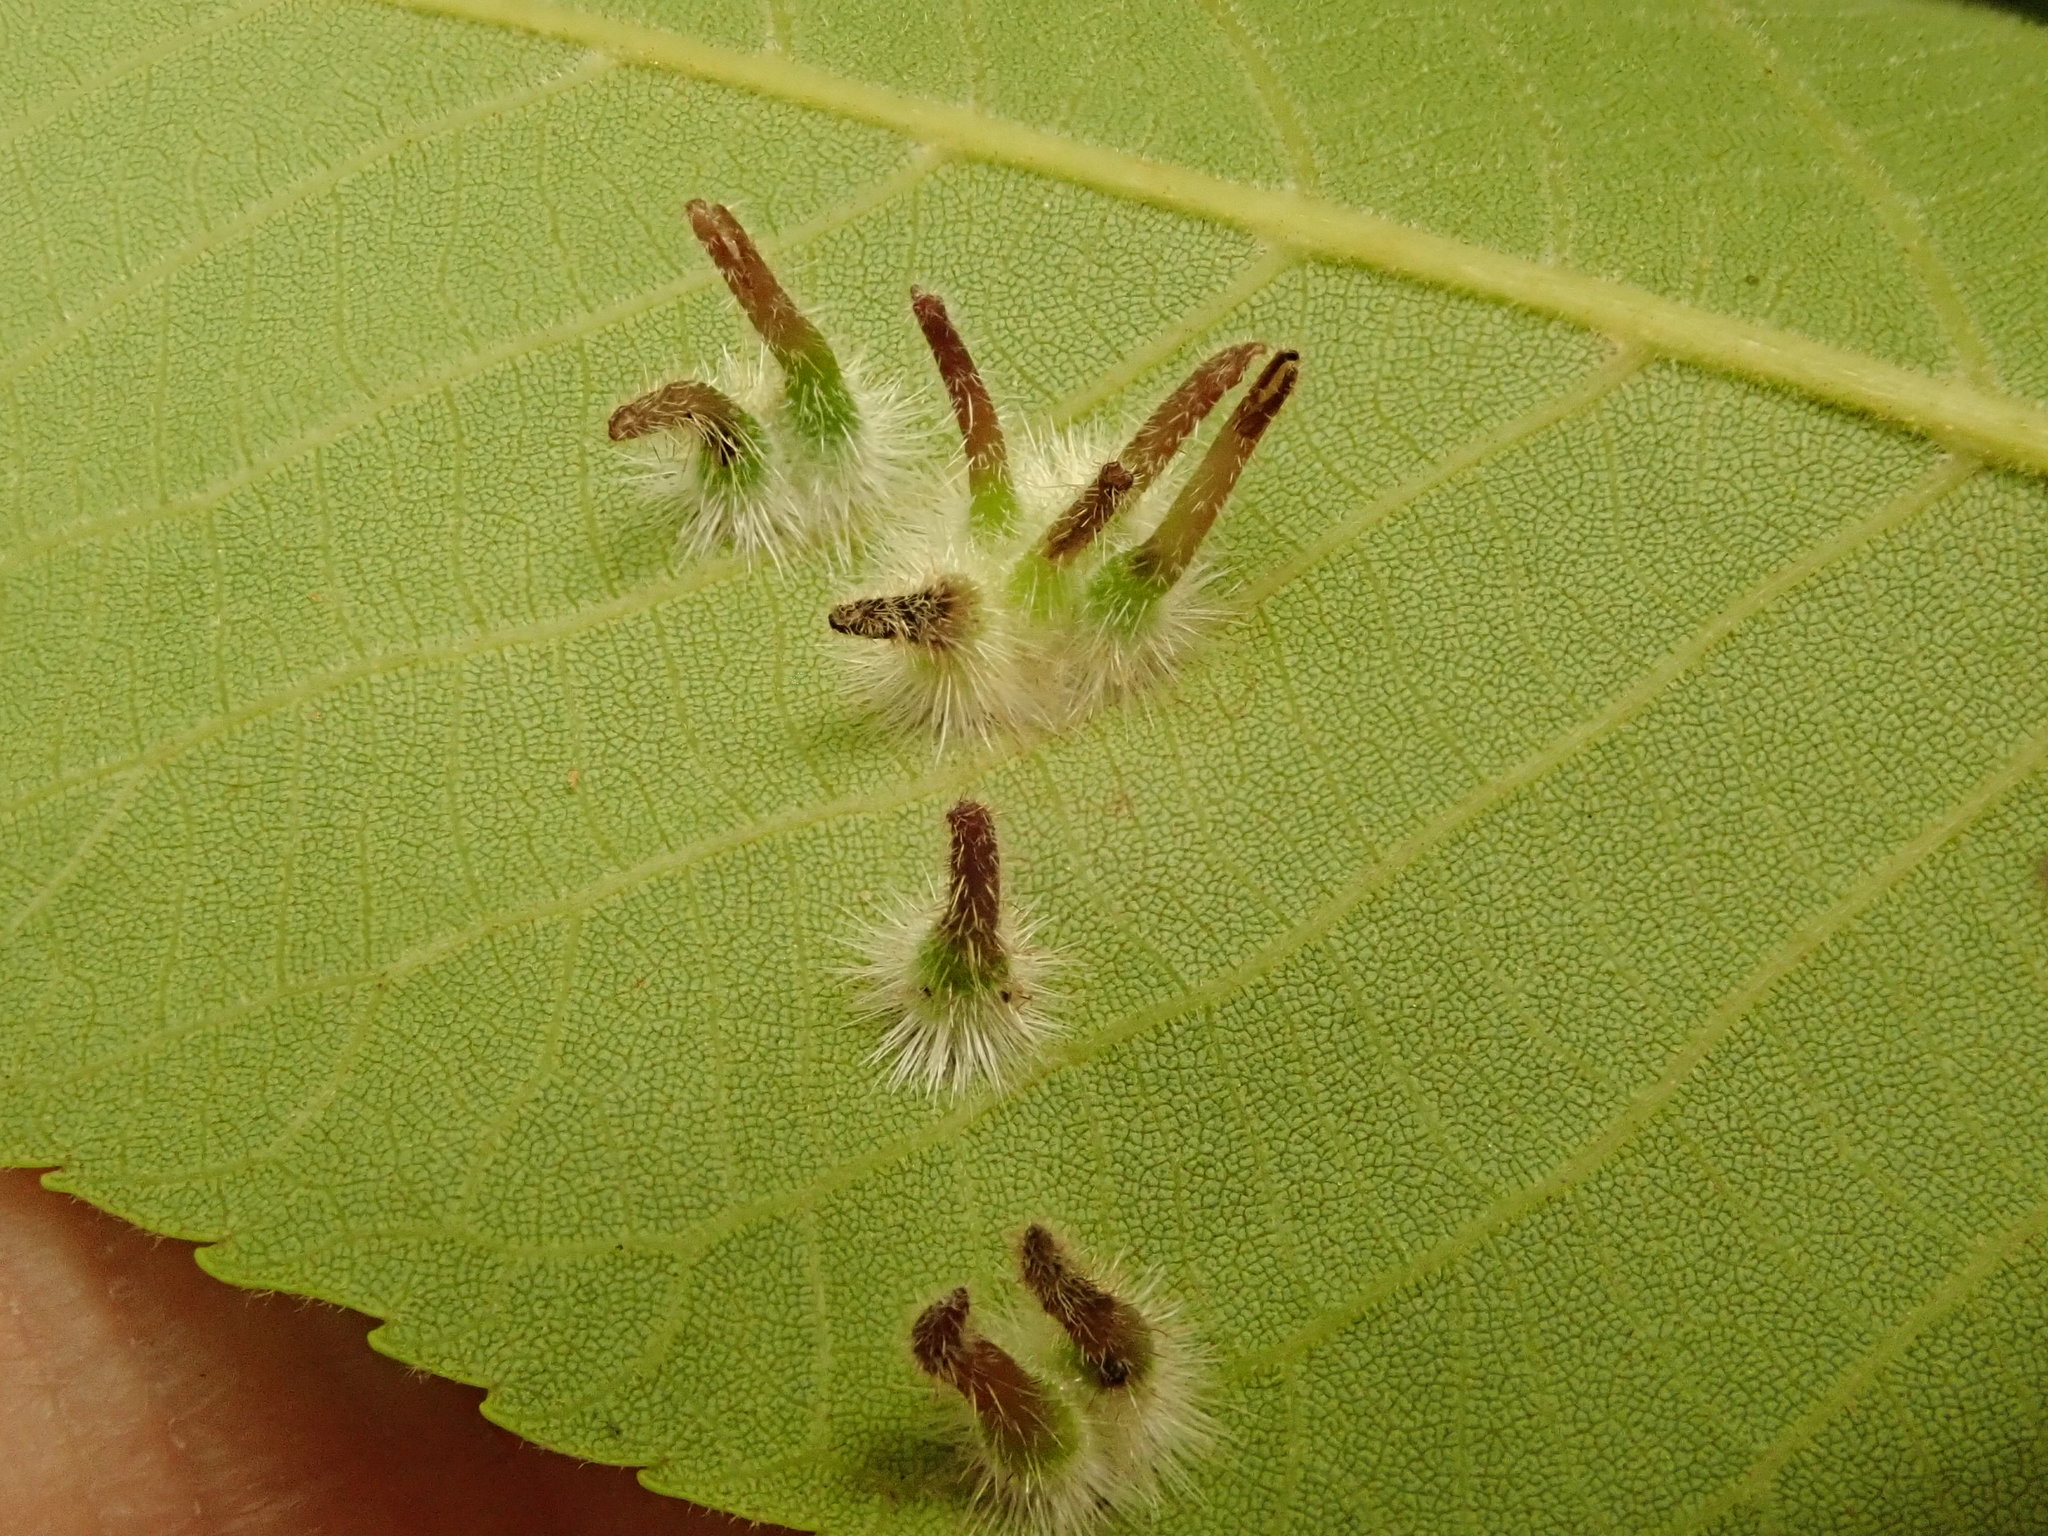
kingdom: Animalia
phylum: Arthropoda
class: Insecta
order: Diptera
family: Cecidomyiidae
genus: Caryomyia
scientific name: Caryomyia echinata
